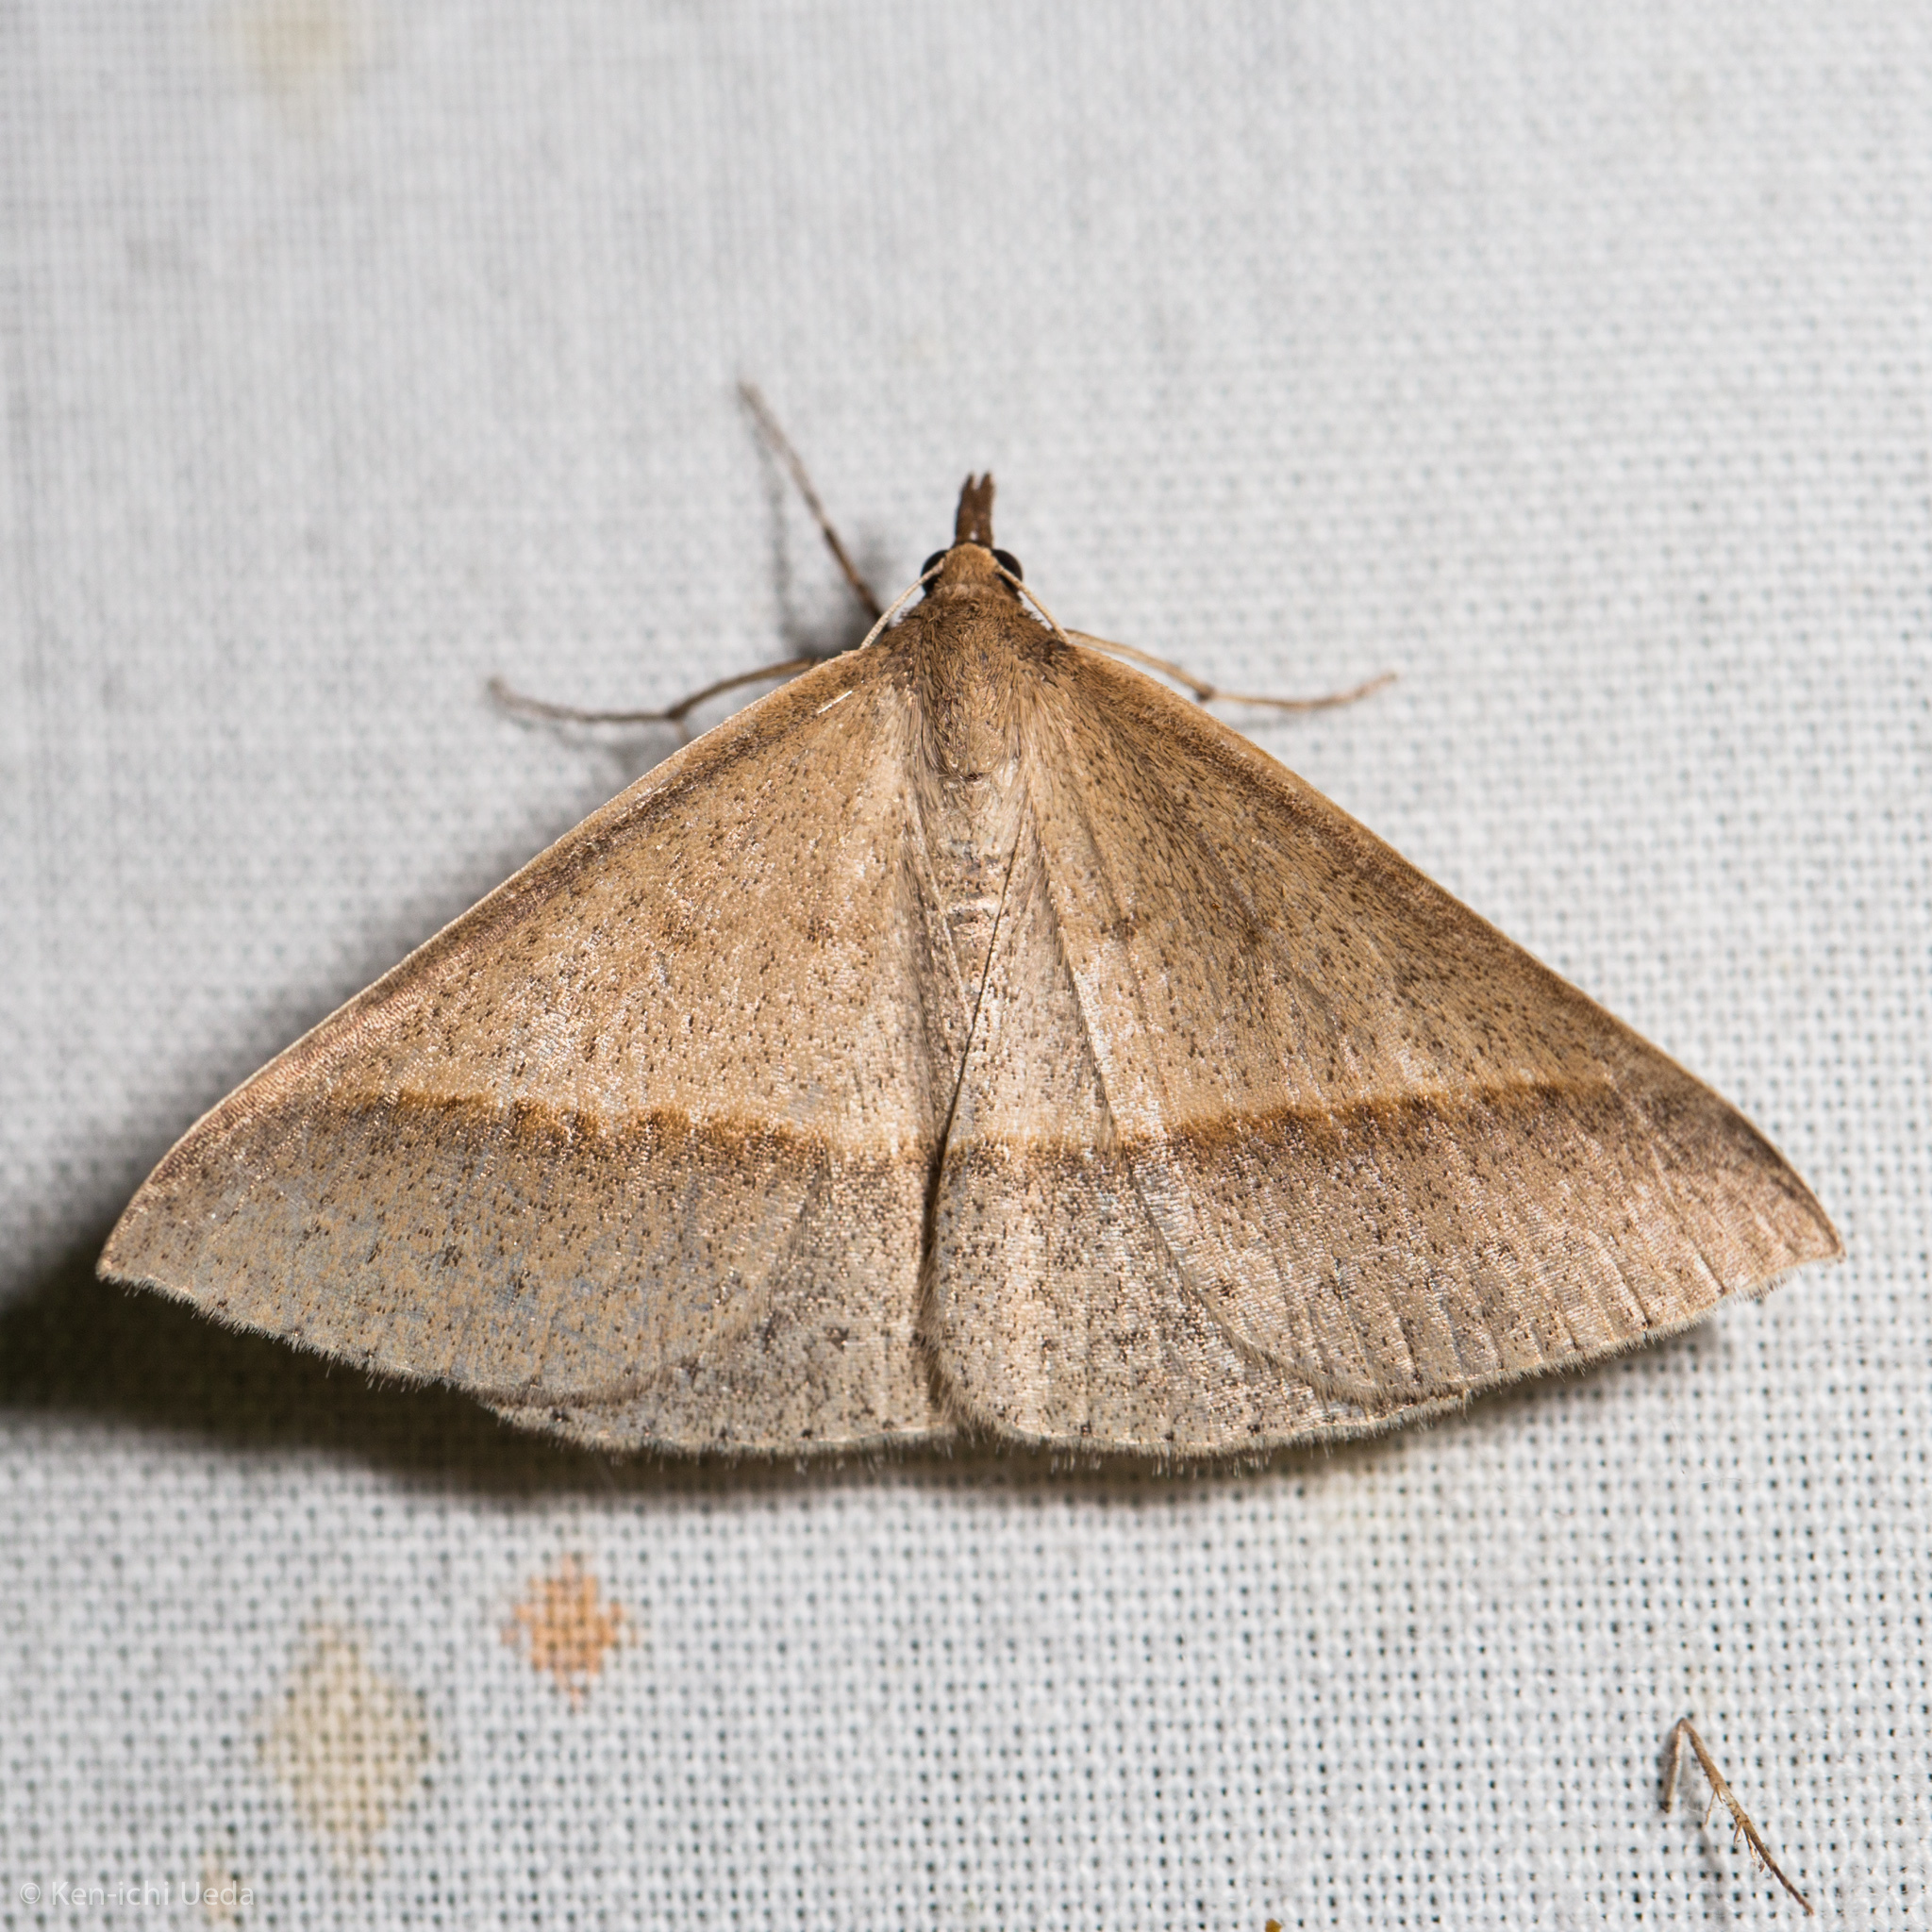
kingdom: Animalia
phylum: Arthropoda
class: Insecta
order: Lepidoptera
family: Geometridae
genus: Epidesmia
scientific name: Epidesmia tryxaria
